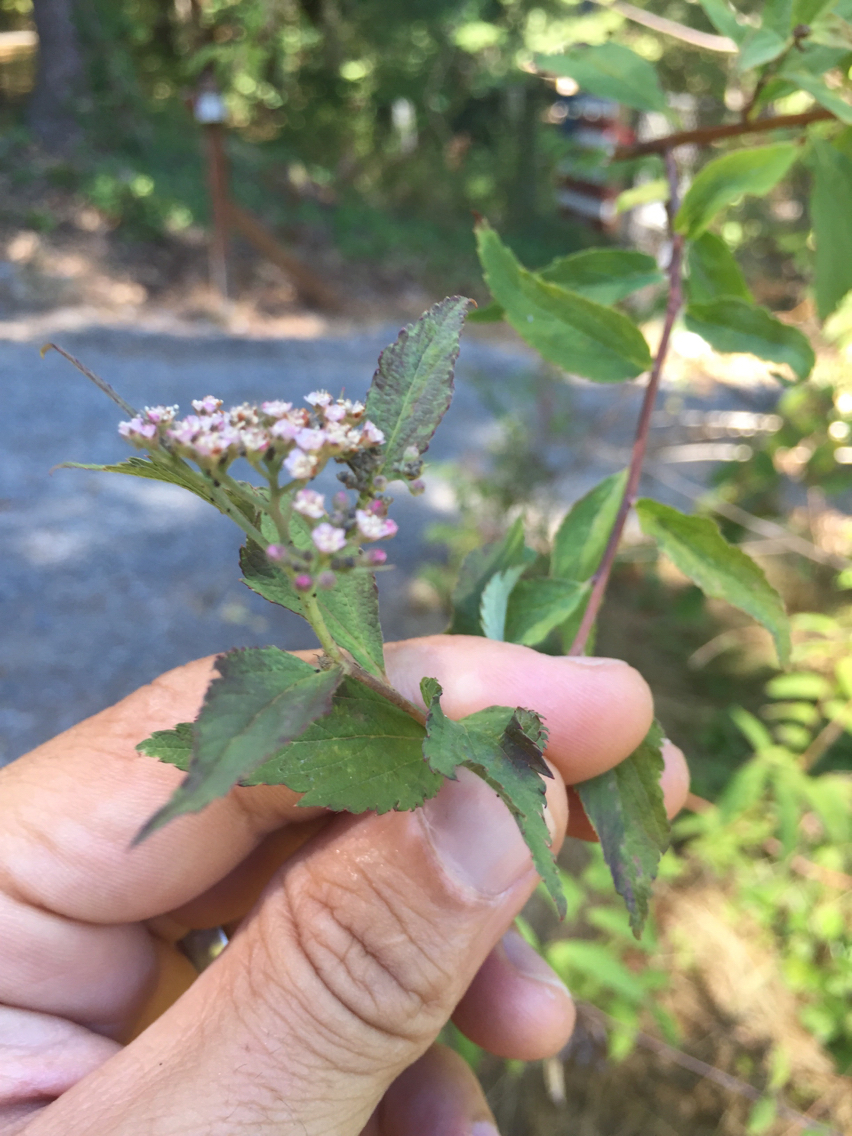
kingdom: Plantae
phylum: Tracheophyta
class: Magnoliopsida
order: Rosales
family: Rosaceae
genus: Spiraea
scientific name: Spiraea japonica
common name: Japanese spiraea
